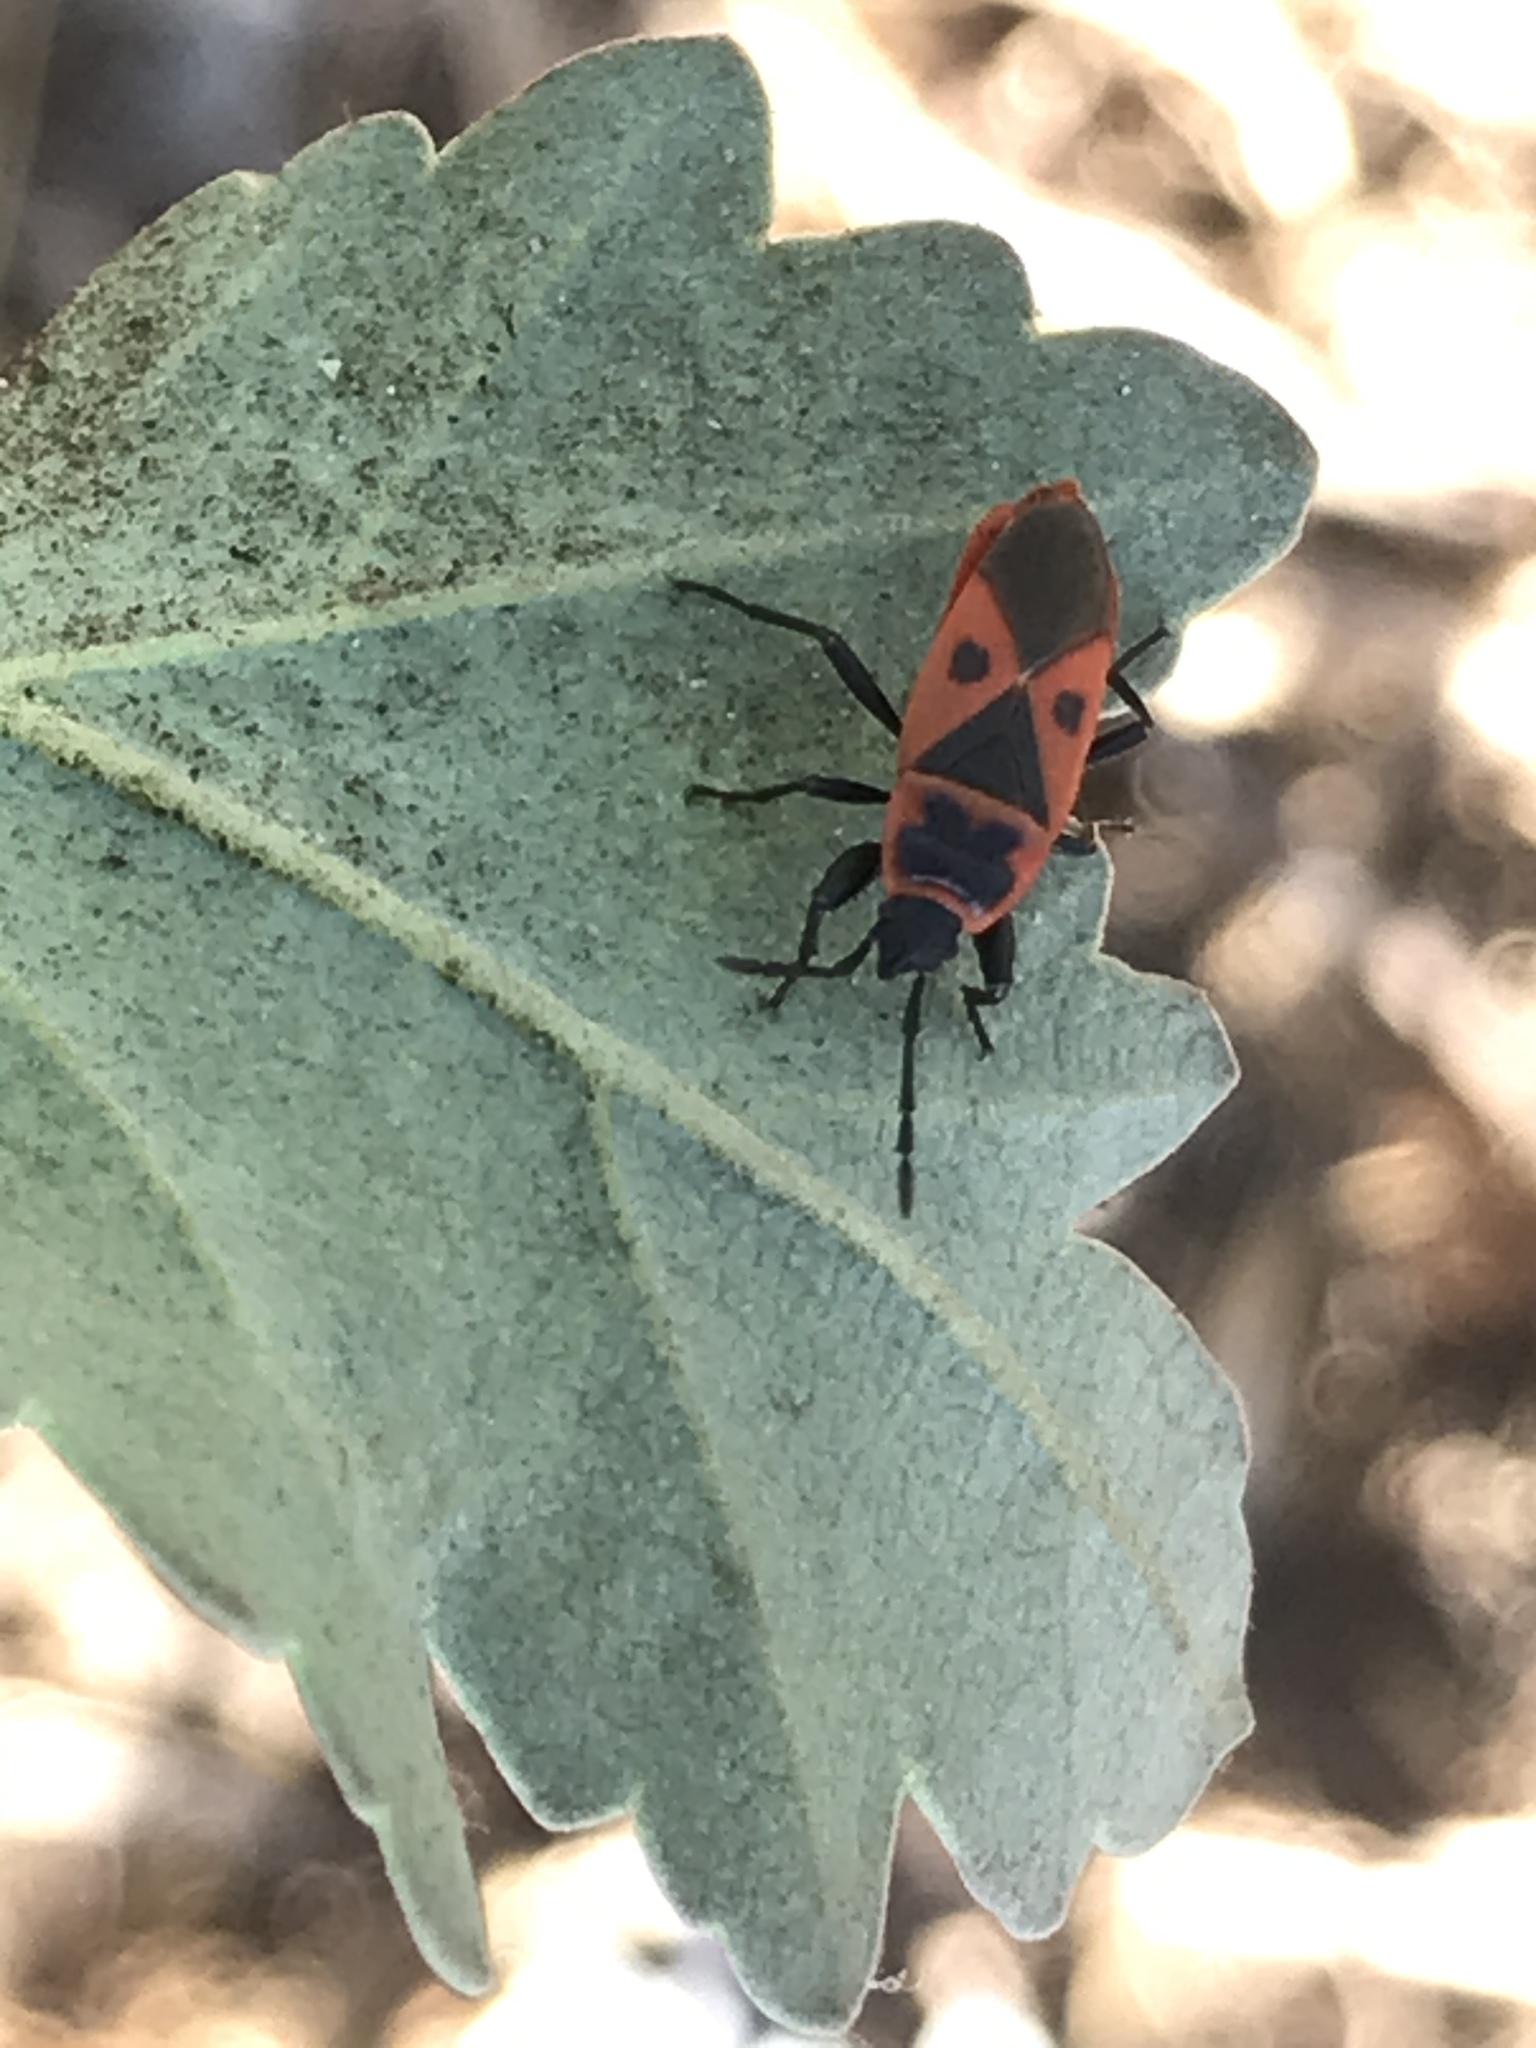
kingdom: Animalia
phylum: Arthropoda
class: Insecta
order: Hemiptera
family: Pyrrhocoridae
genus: Scantius
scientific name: Scantius aegyptius
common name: Red bug
